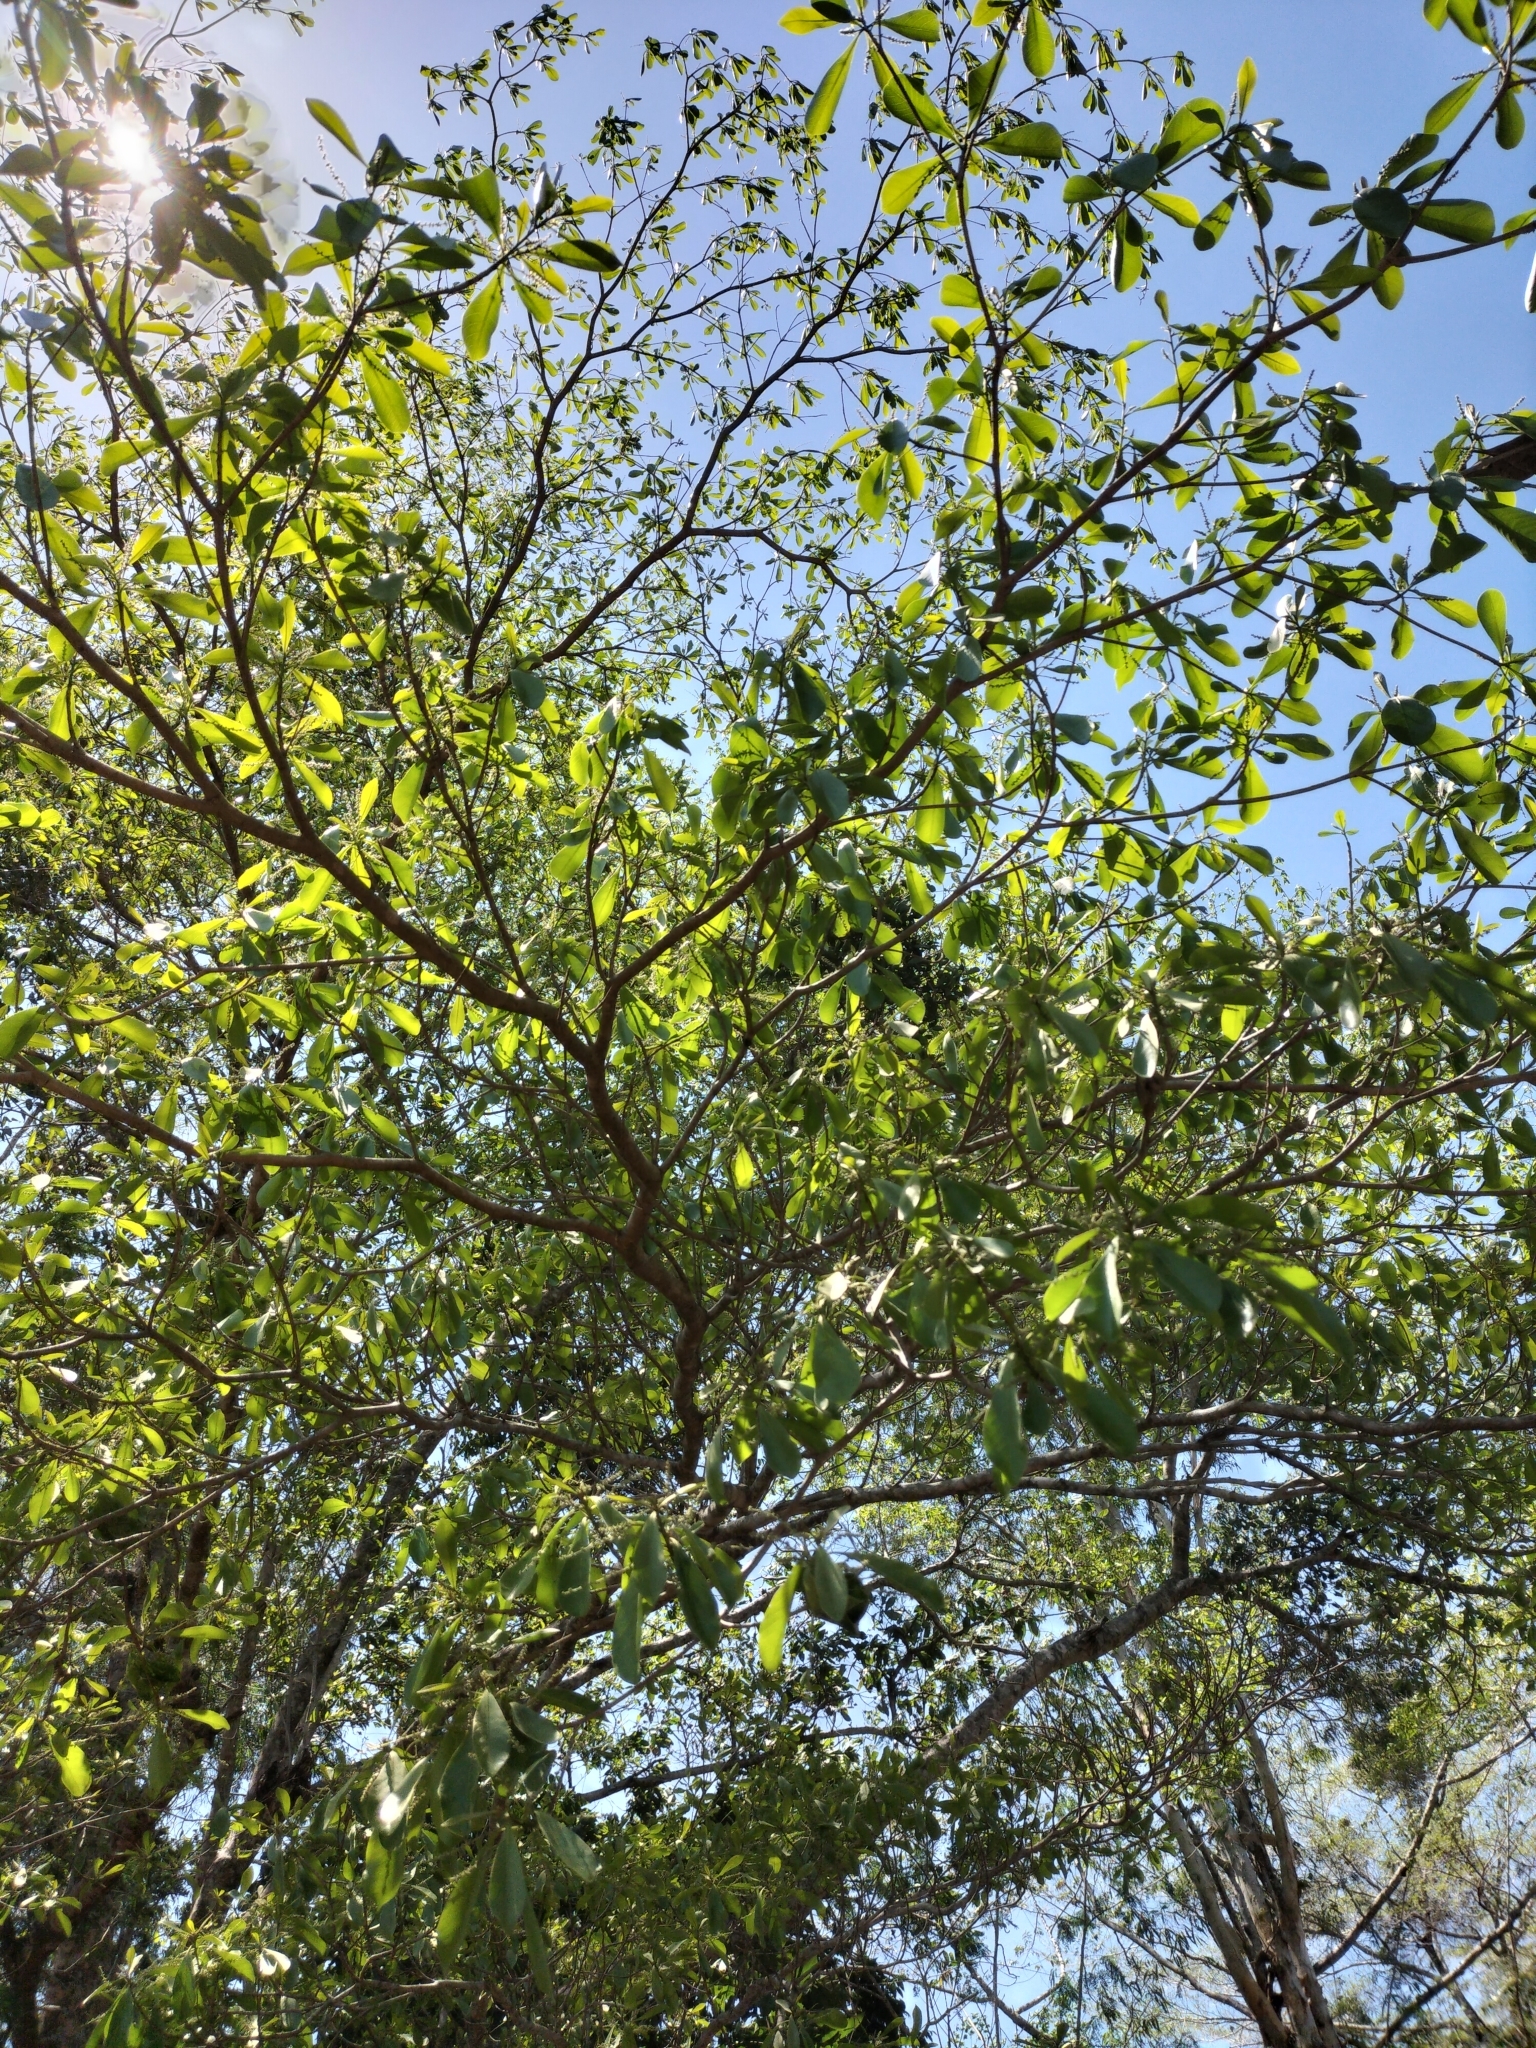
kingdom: Plantae
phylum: Tracheophyta
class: Magnoliopsida
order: Myrtales
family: Combretaceae
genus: Terminalia
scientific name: Terminalia microcarpa
